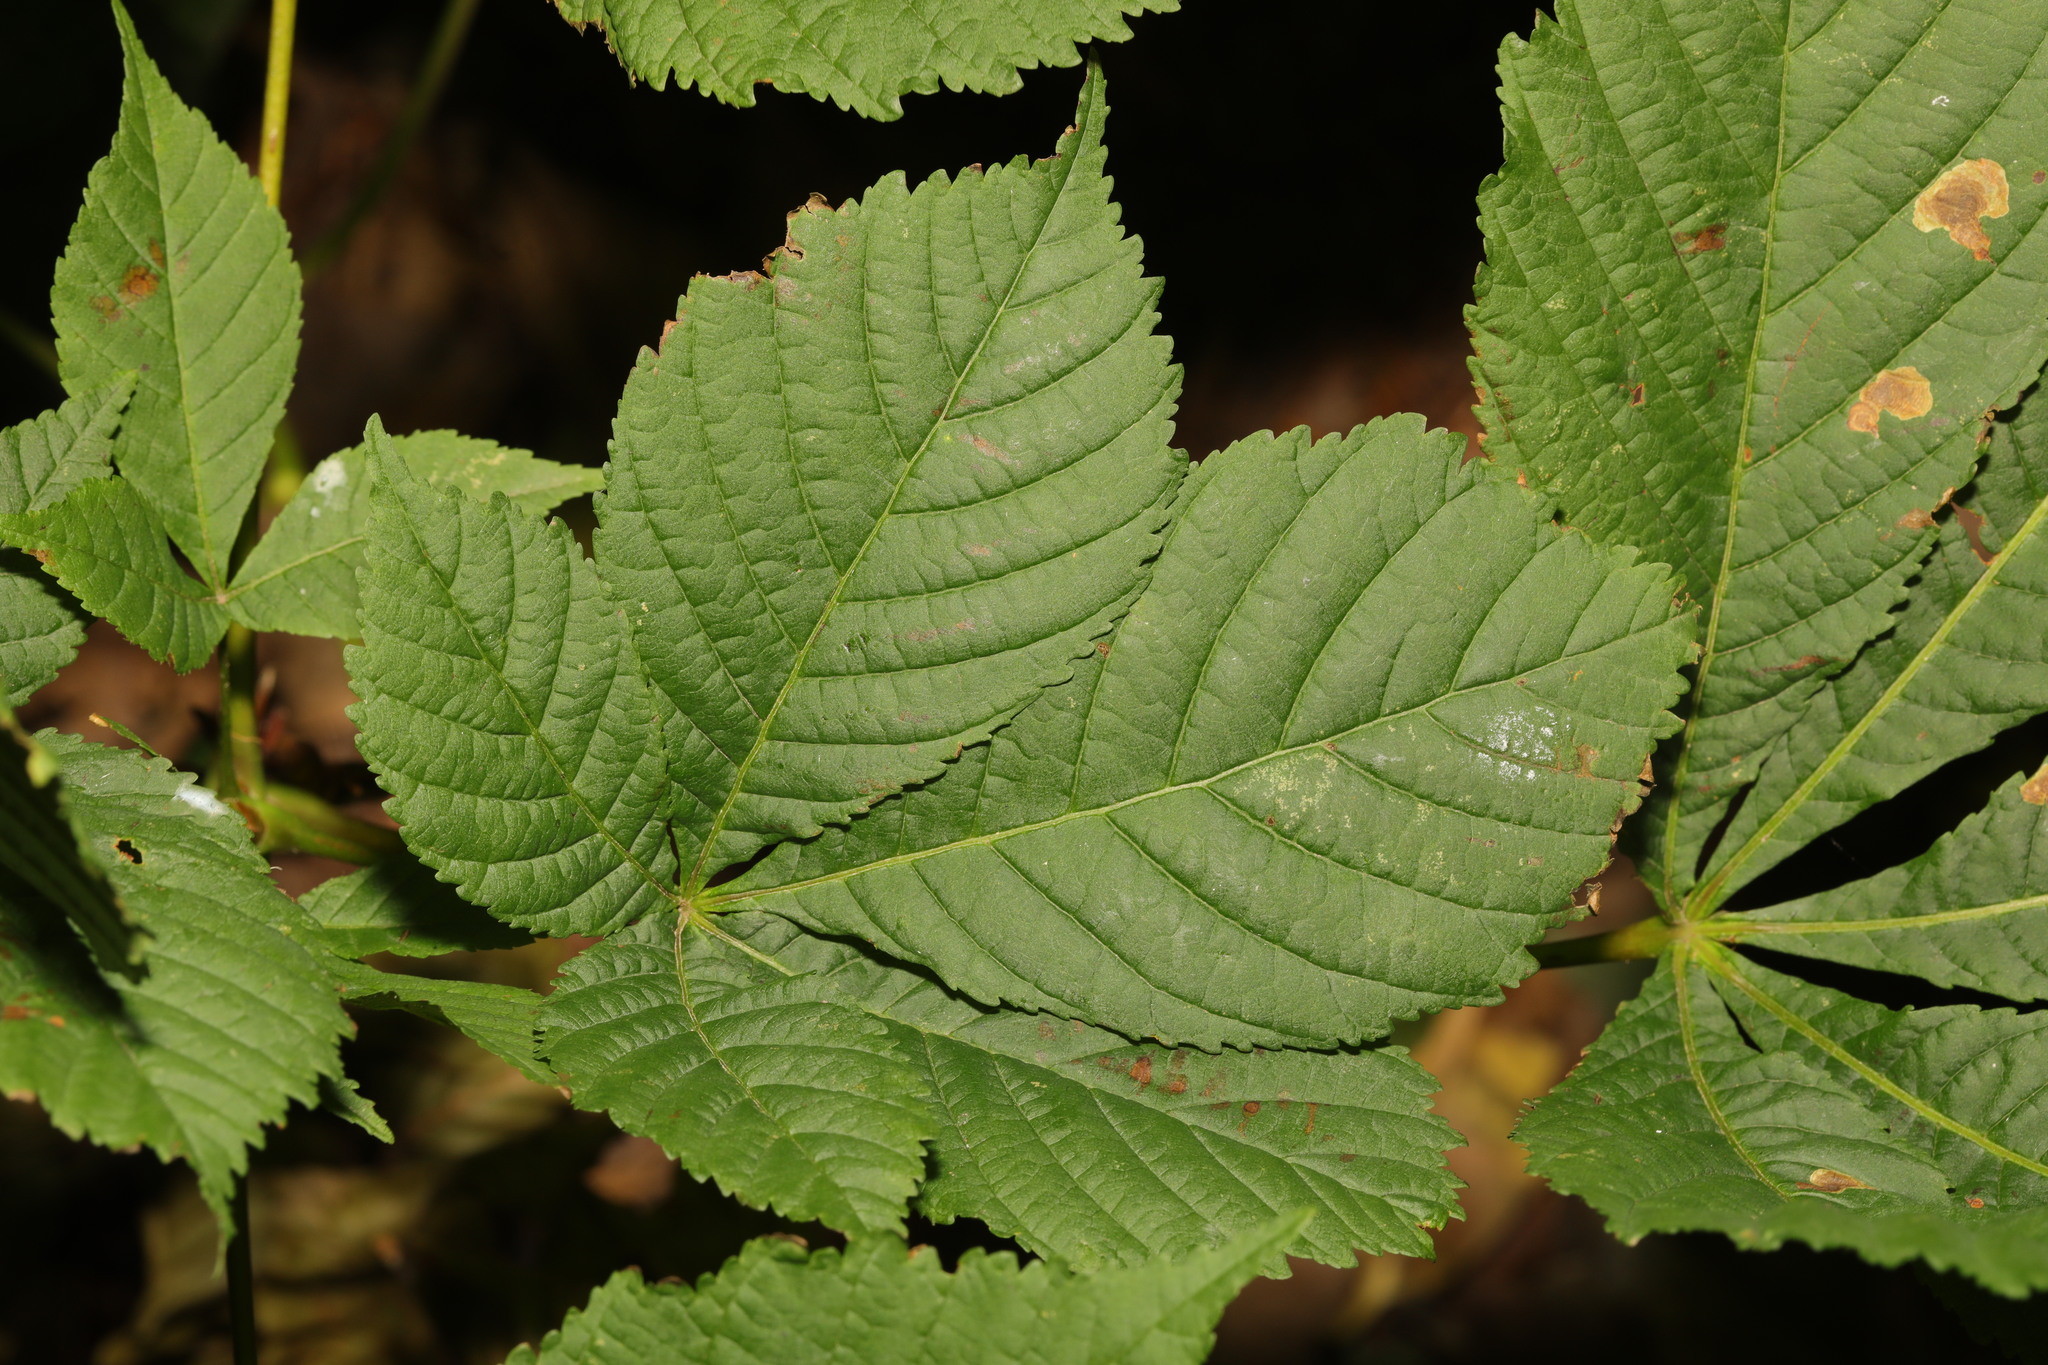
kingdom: Plantae
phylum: Tracheophyta
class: Magnoliopsida
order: Sapindales
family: Sapindaceae
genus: Aesculus
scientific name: Aesculus hippocastanum
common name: Horse-chestnut
